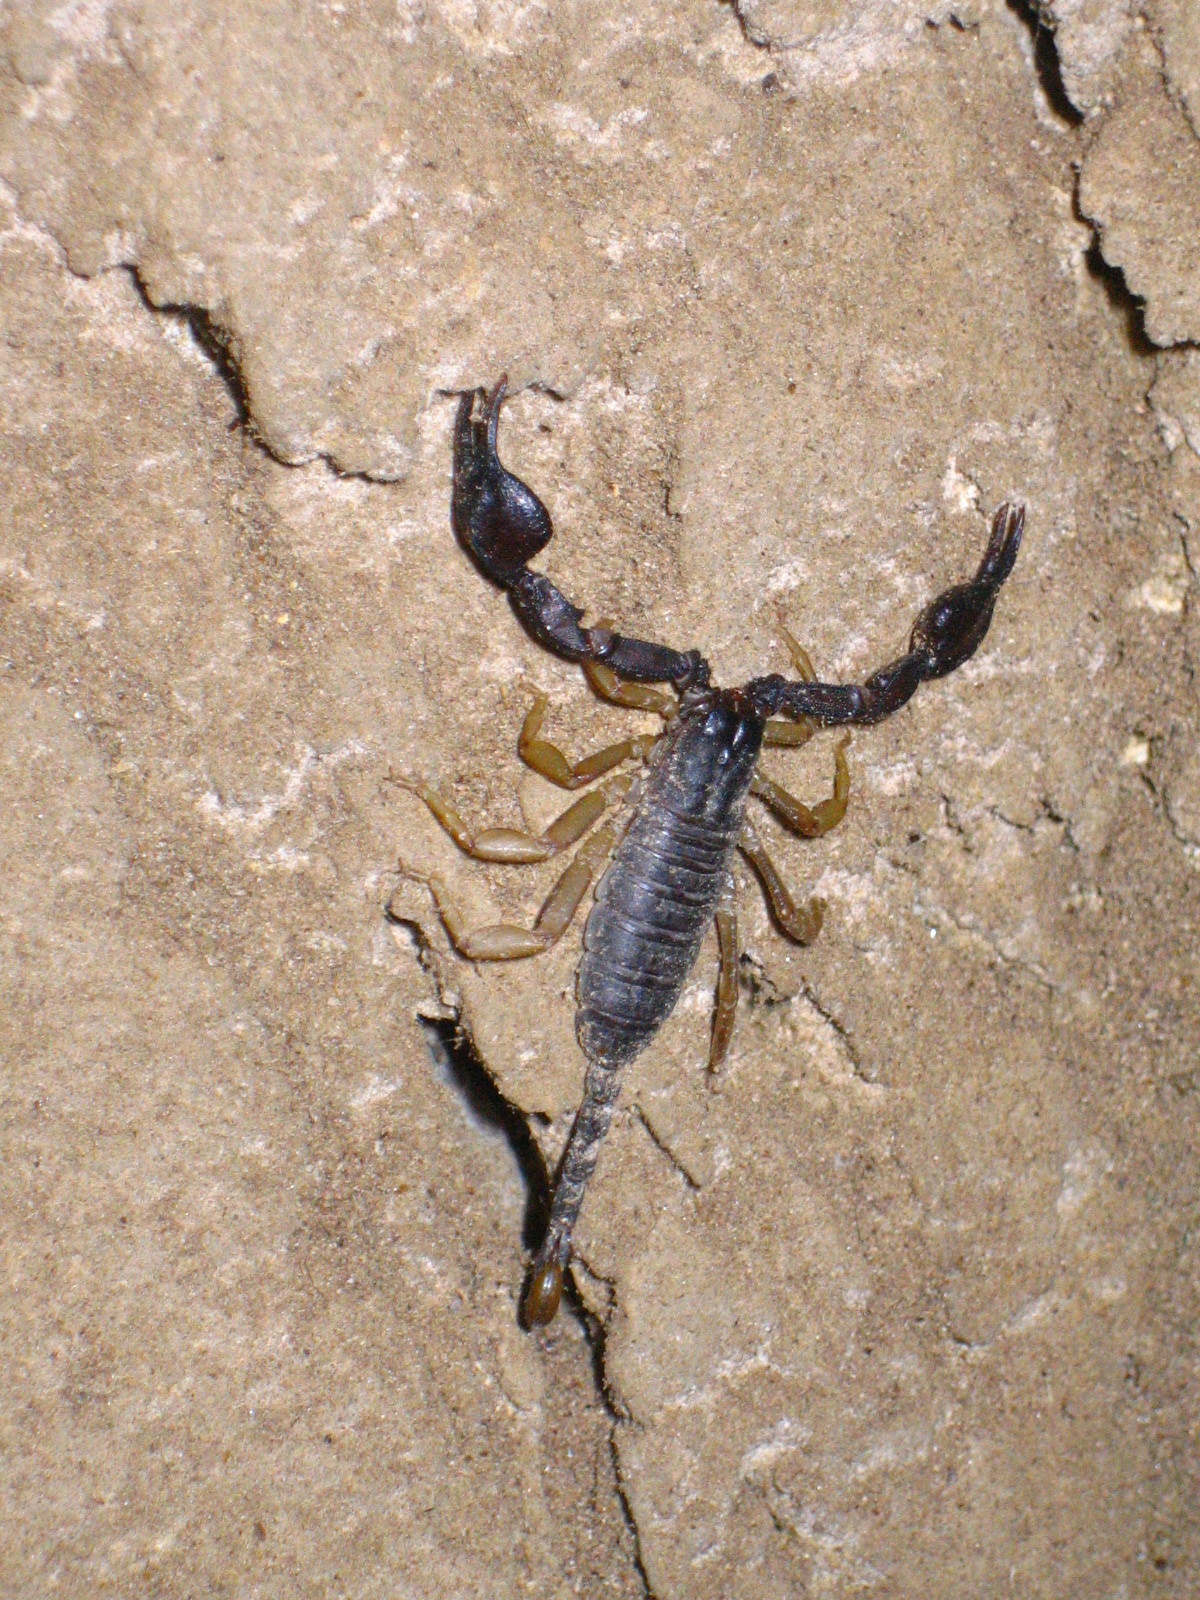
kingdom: Animalia
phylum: Arthropoda
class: Arachnida
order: Scorpiones
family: Euscorpiidae
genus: Euscorpius
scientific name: Euscorpius flavicaudis
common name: European yellow-tailed scorpion
